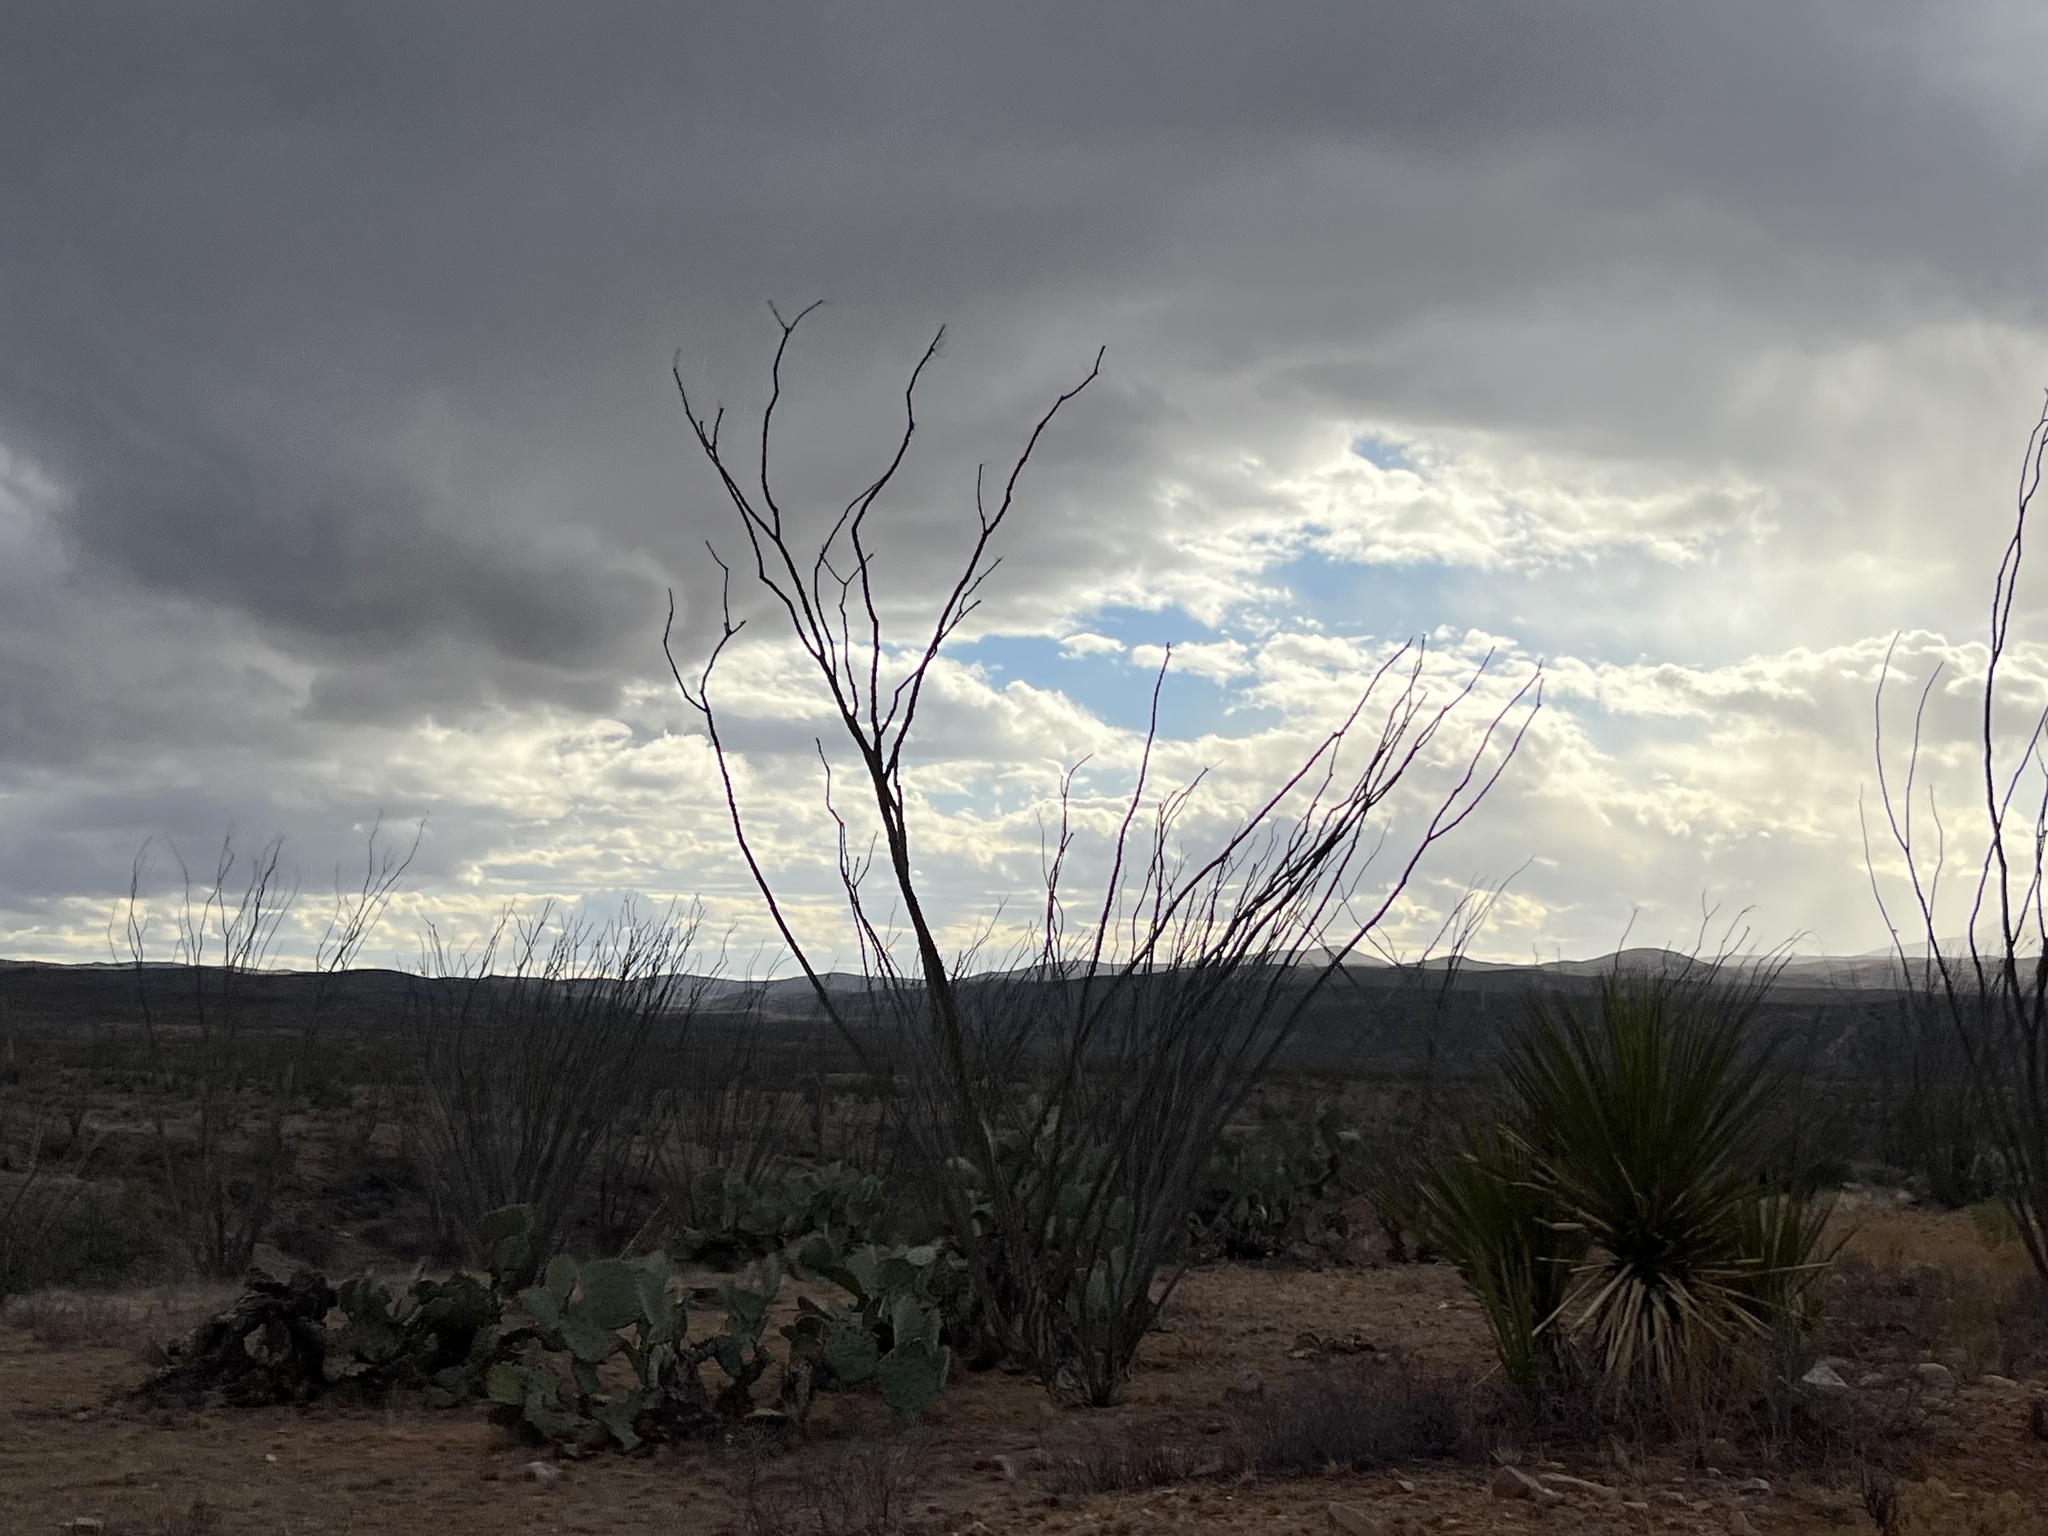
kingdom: Plantae
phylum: Tracheophyta
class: Magnoliopsida
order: Ericales
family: Fouquieriaceae
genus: Fouquieria
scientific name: Fouquieria splendens
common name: Vine-cactus
